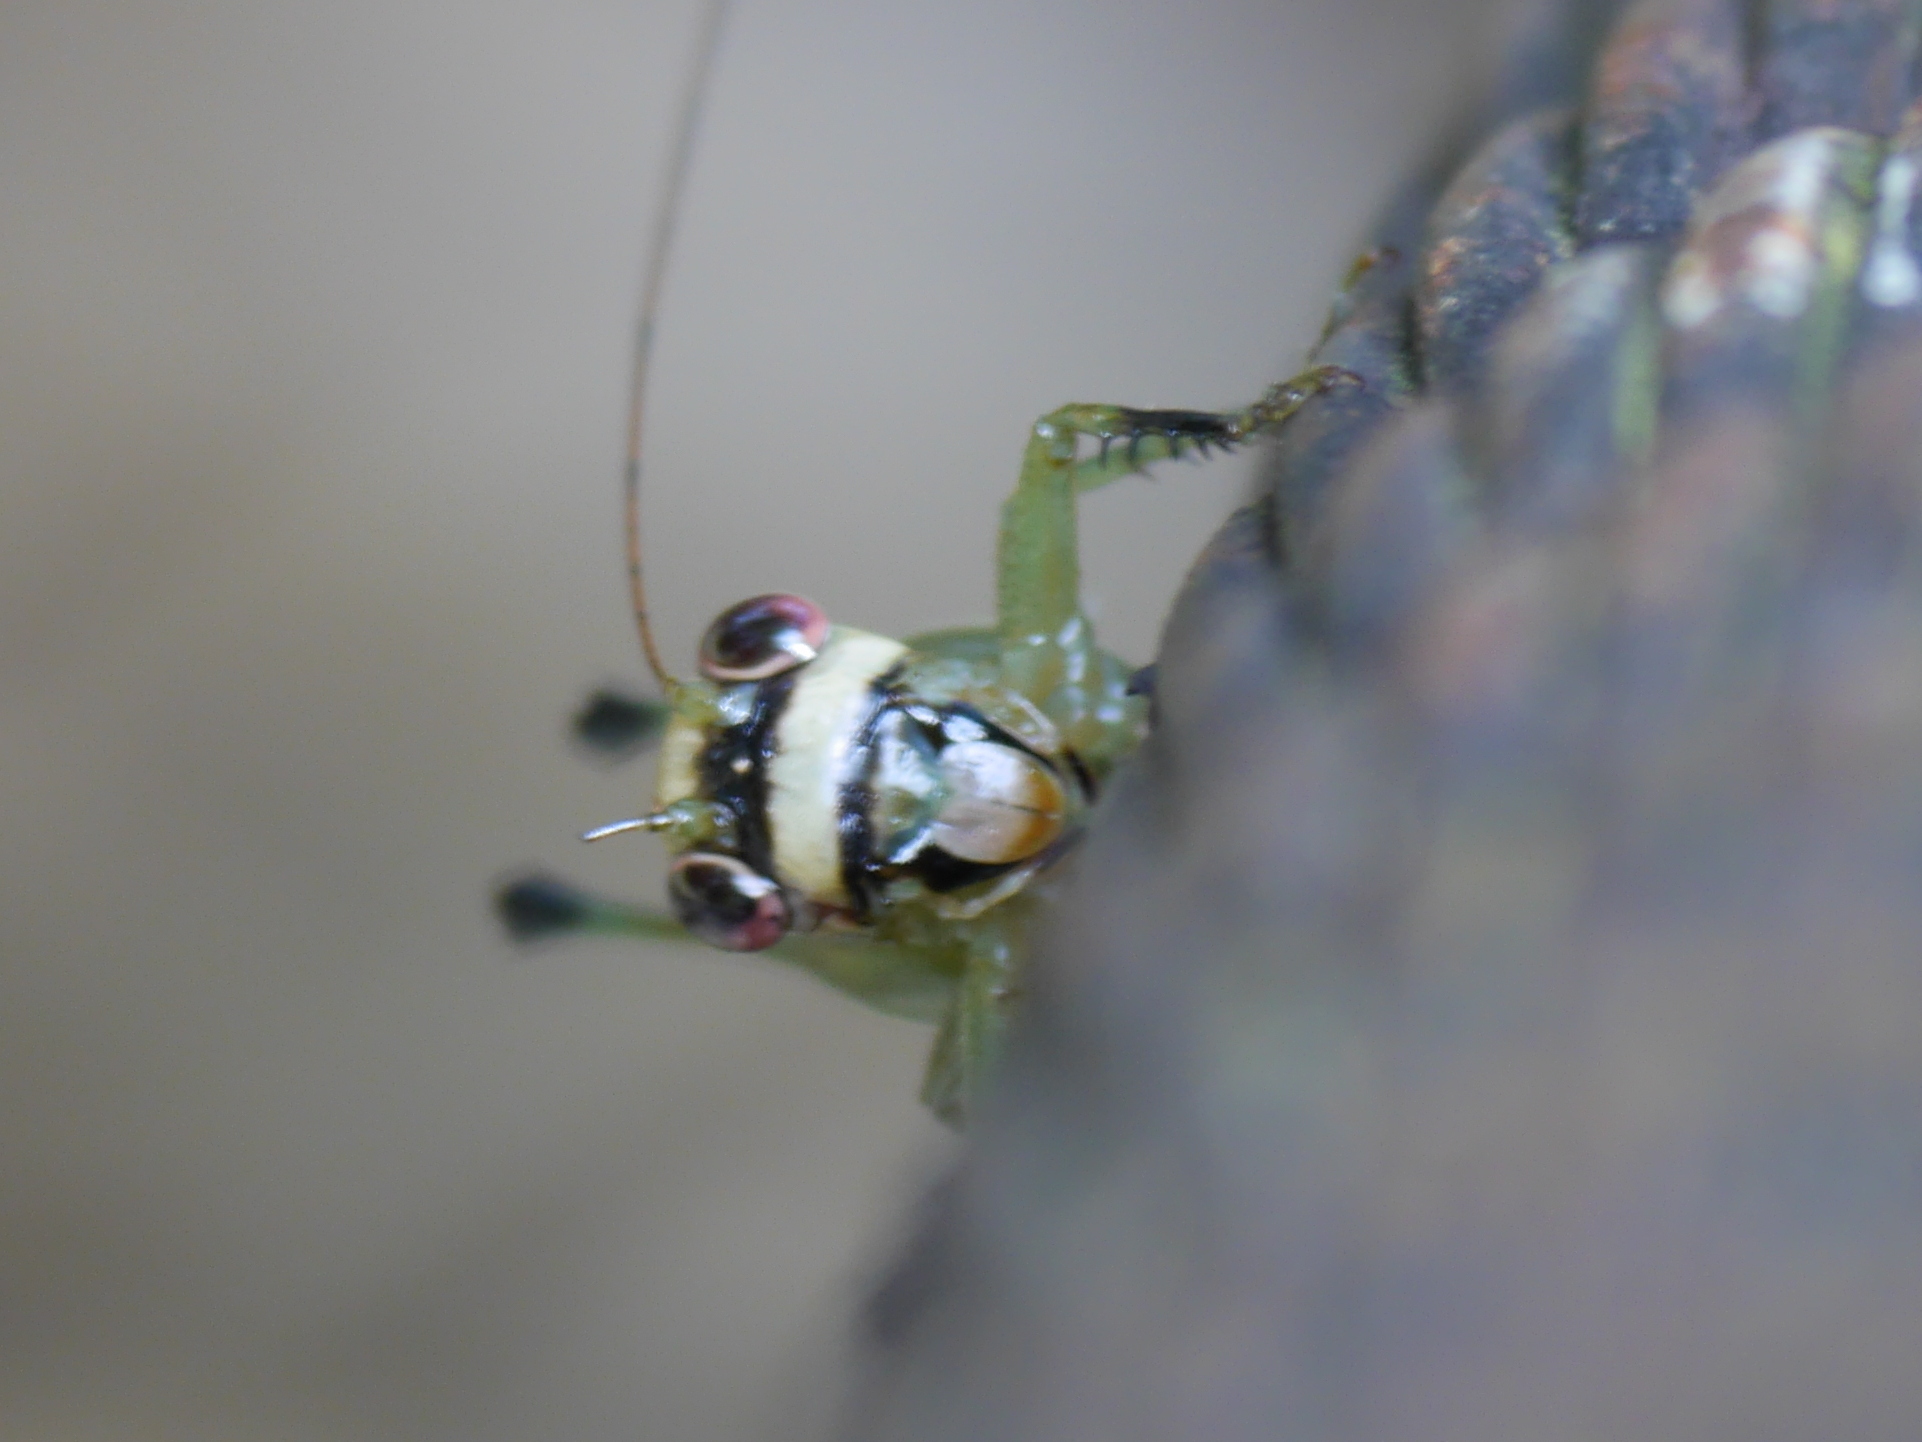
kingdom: Animalia
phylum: Arthropoda
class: Insecta
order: Orthoptera
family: Tettigoniidae
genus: Lipotactes
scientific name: Lipotactes azuriventer
